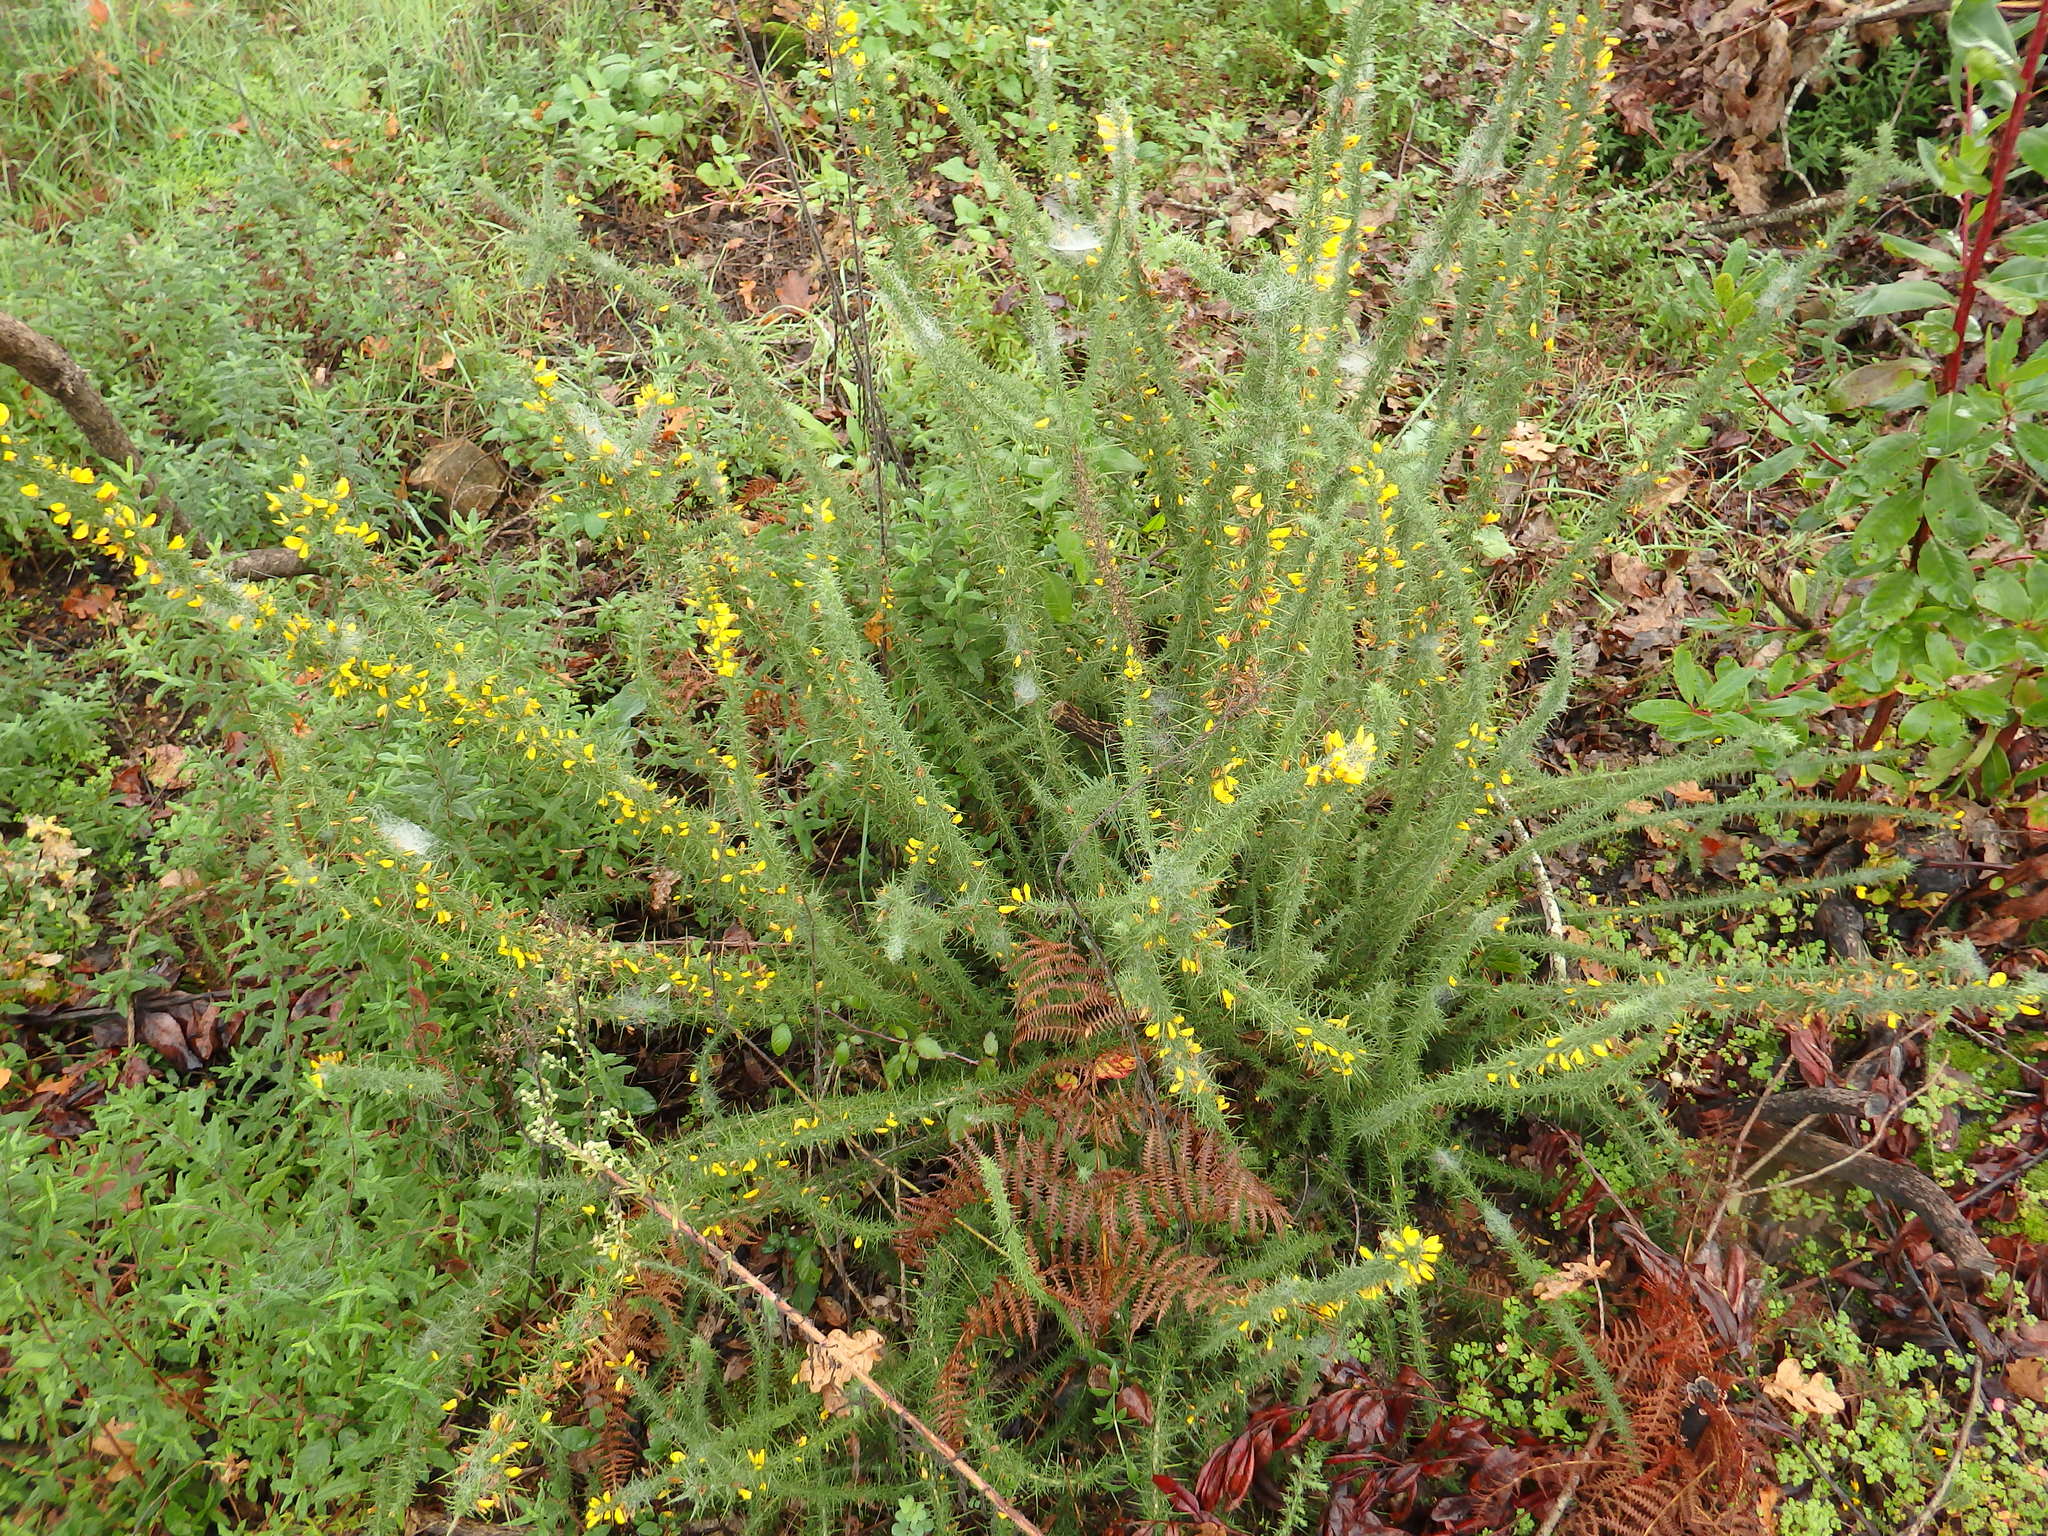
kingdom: Plantae
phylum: Tracheophyta
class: Magnoliopsida
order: Fabales
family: Fabaceae
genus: Ulex
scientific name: Ulex minor
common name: Dwarf gorse
